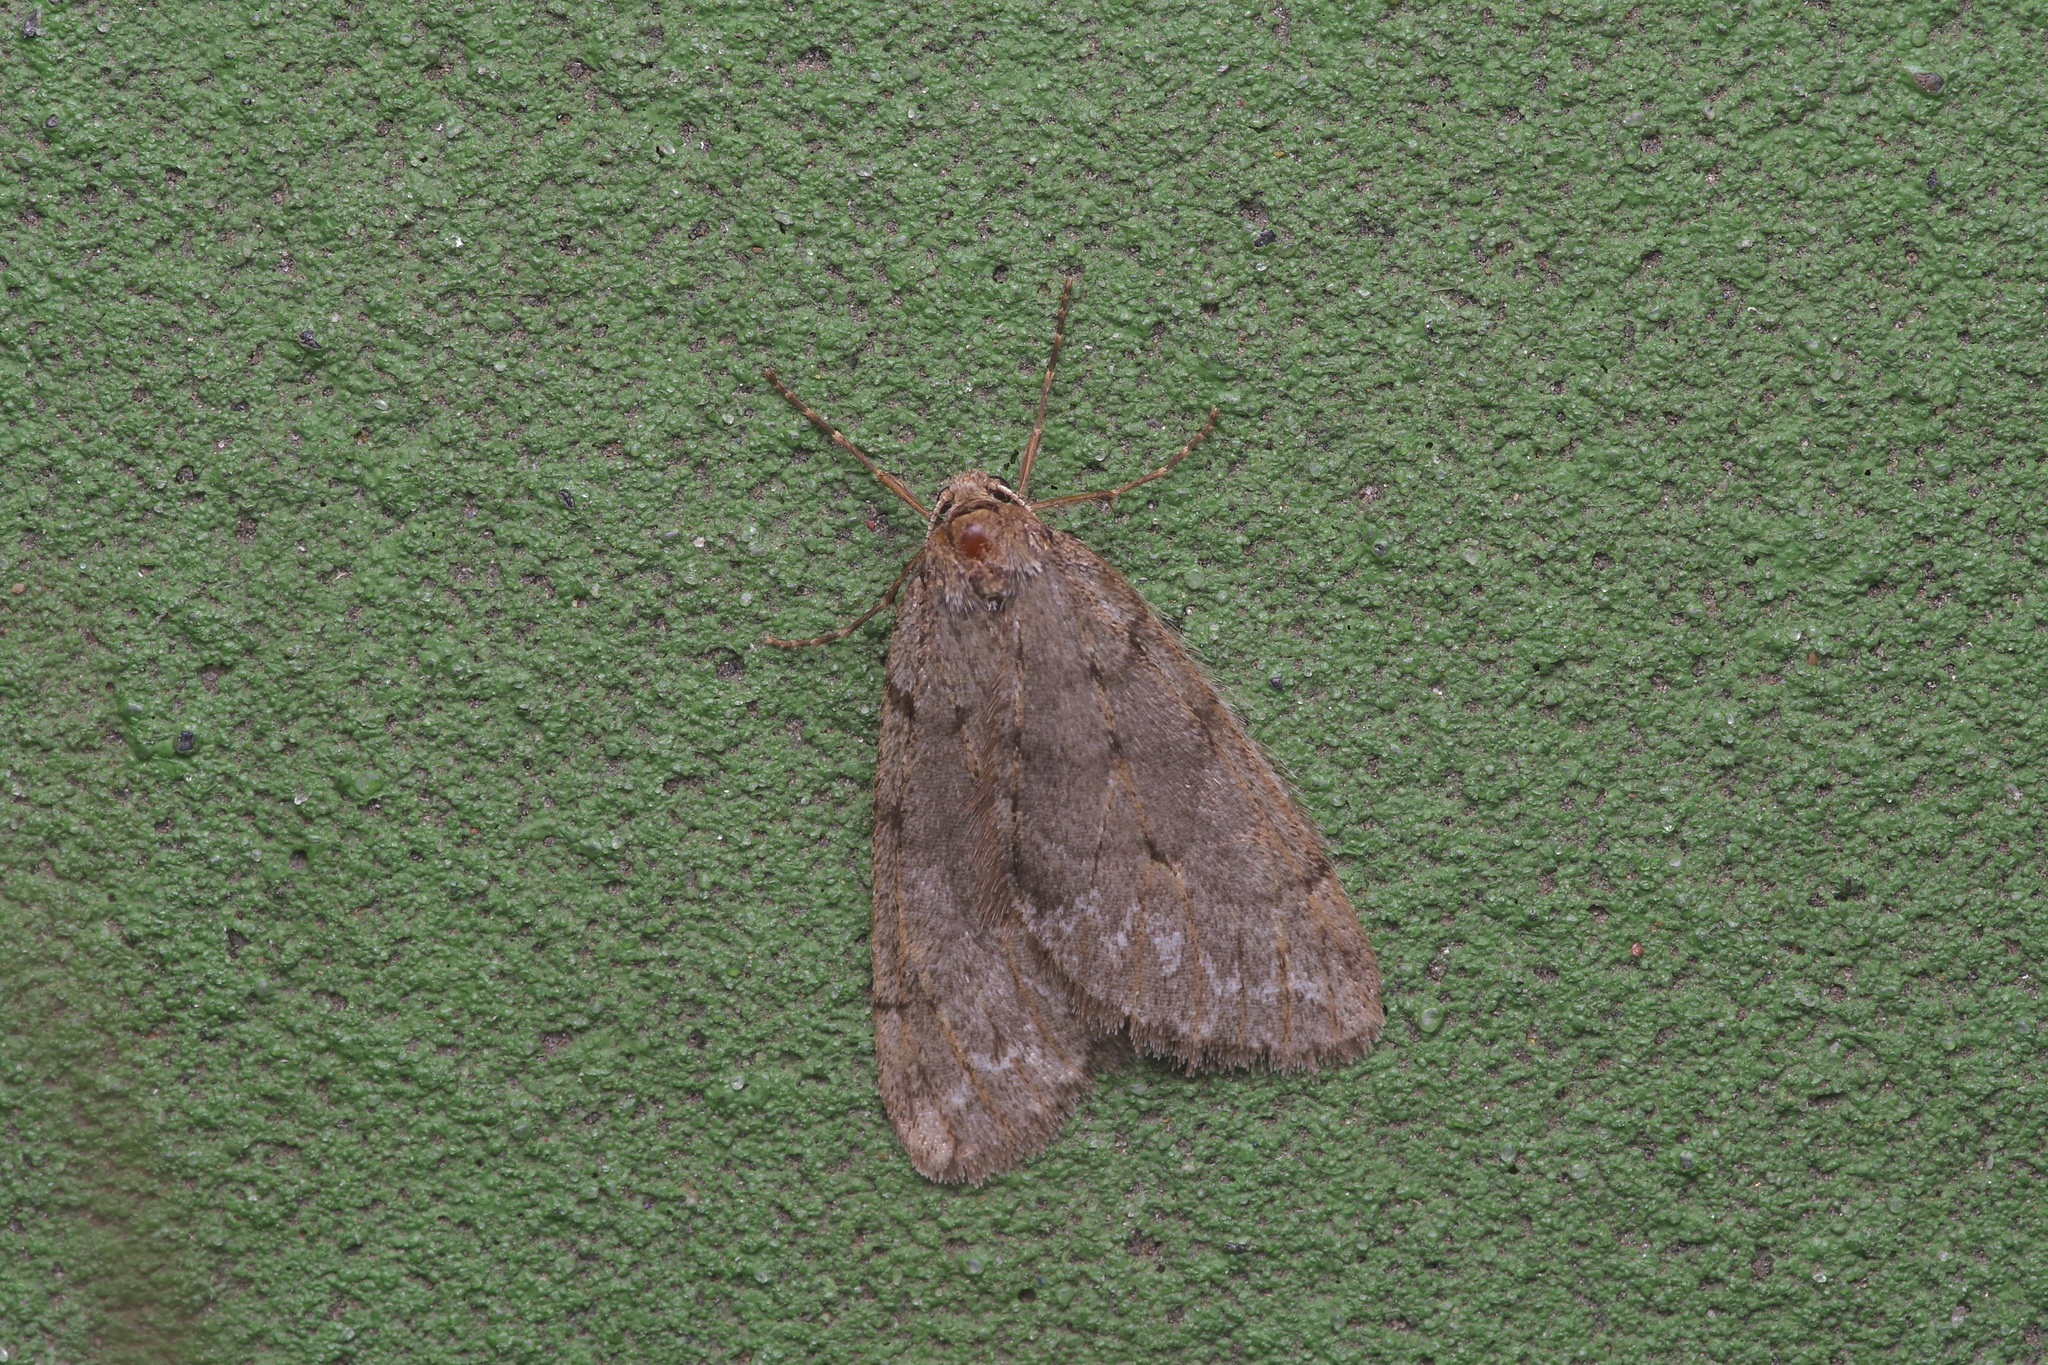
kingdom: Animalia
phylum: Arthropoda
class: Insecta
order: Lepidoptera
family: Geometridae
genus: Paleacrita
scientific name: Paleacrita vernata
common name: Spring cankerworm
